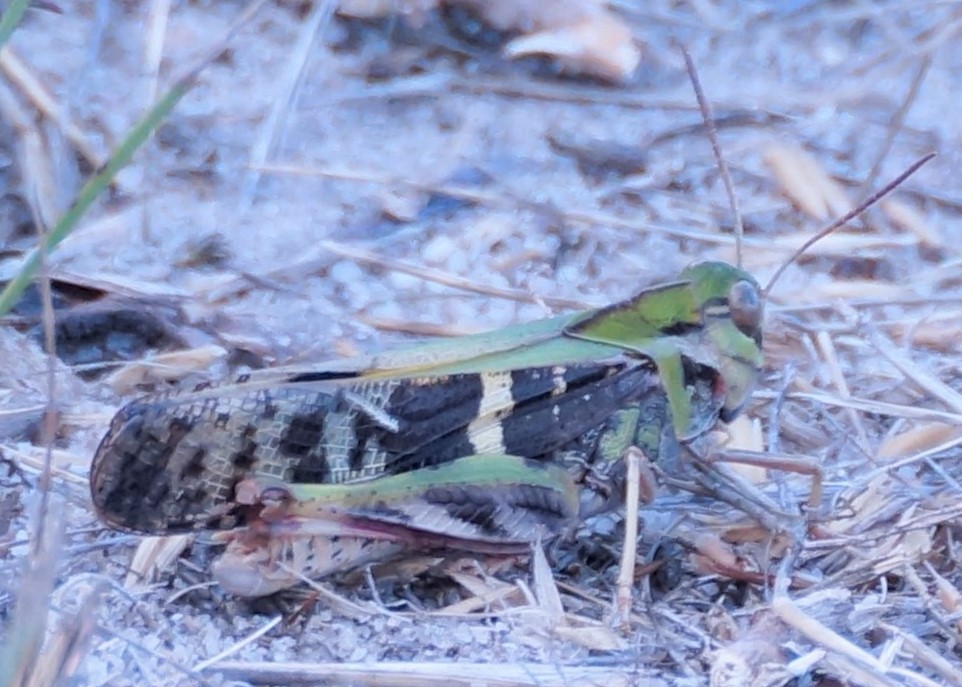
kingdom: Animalia
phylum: Arthropoda
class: Insecta
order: Orthoptera
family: Acrididae
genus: Gastrimargus
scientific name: Gastrimargus musicus
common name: Yellow-winged locust
